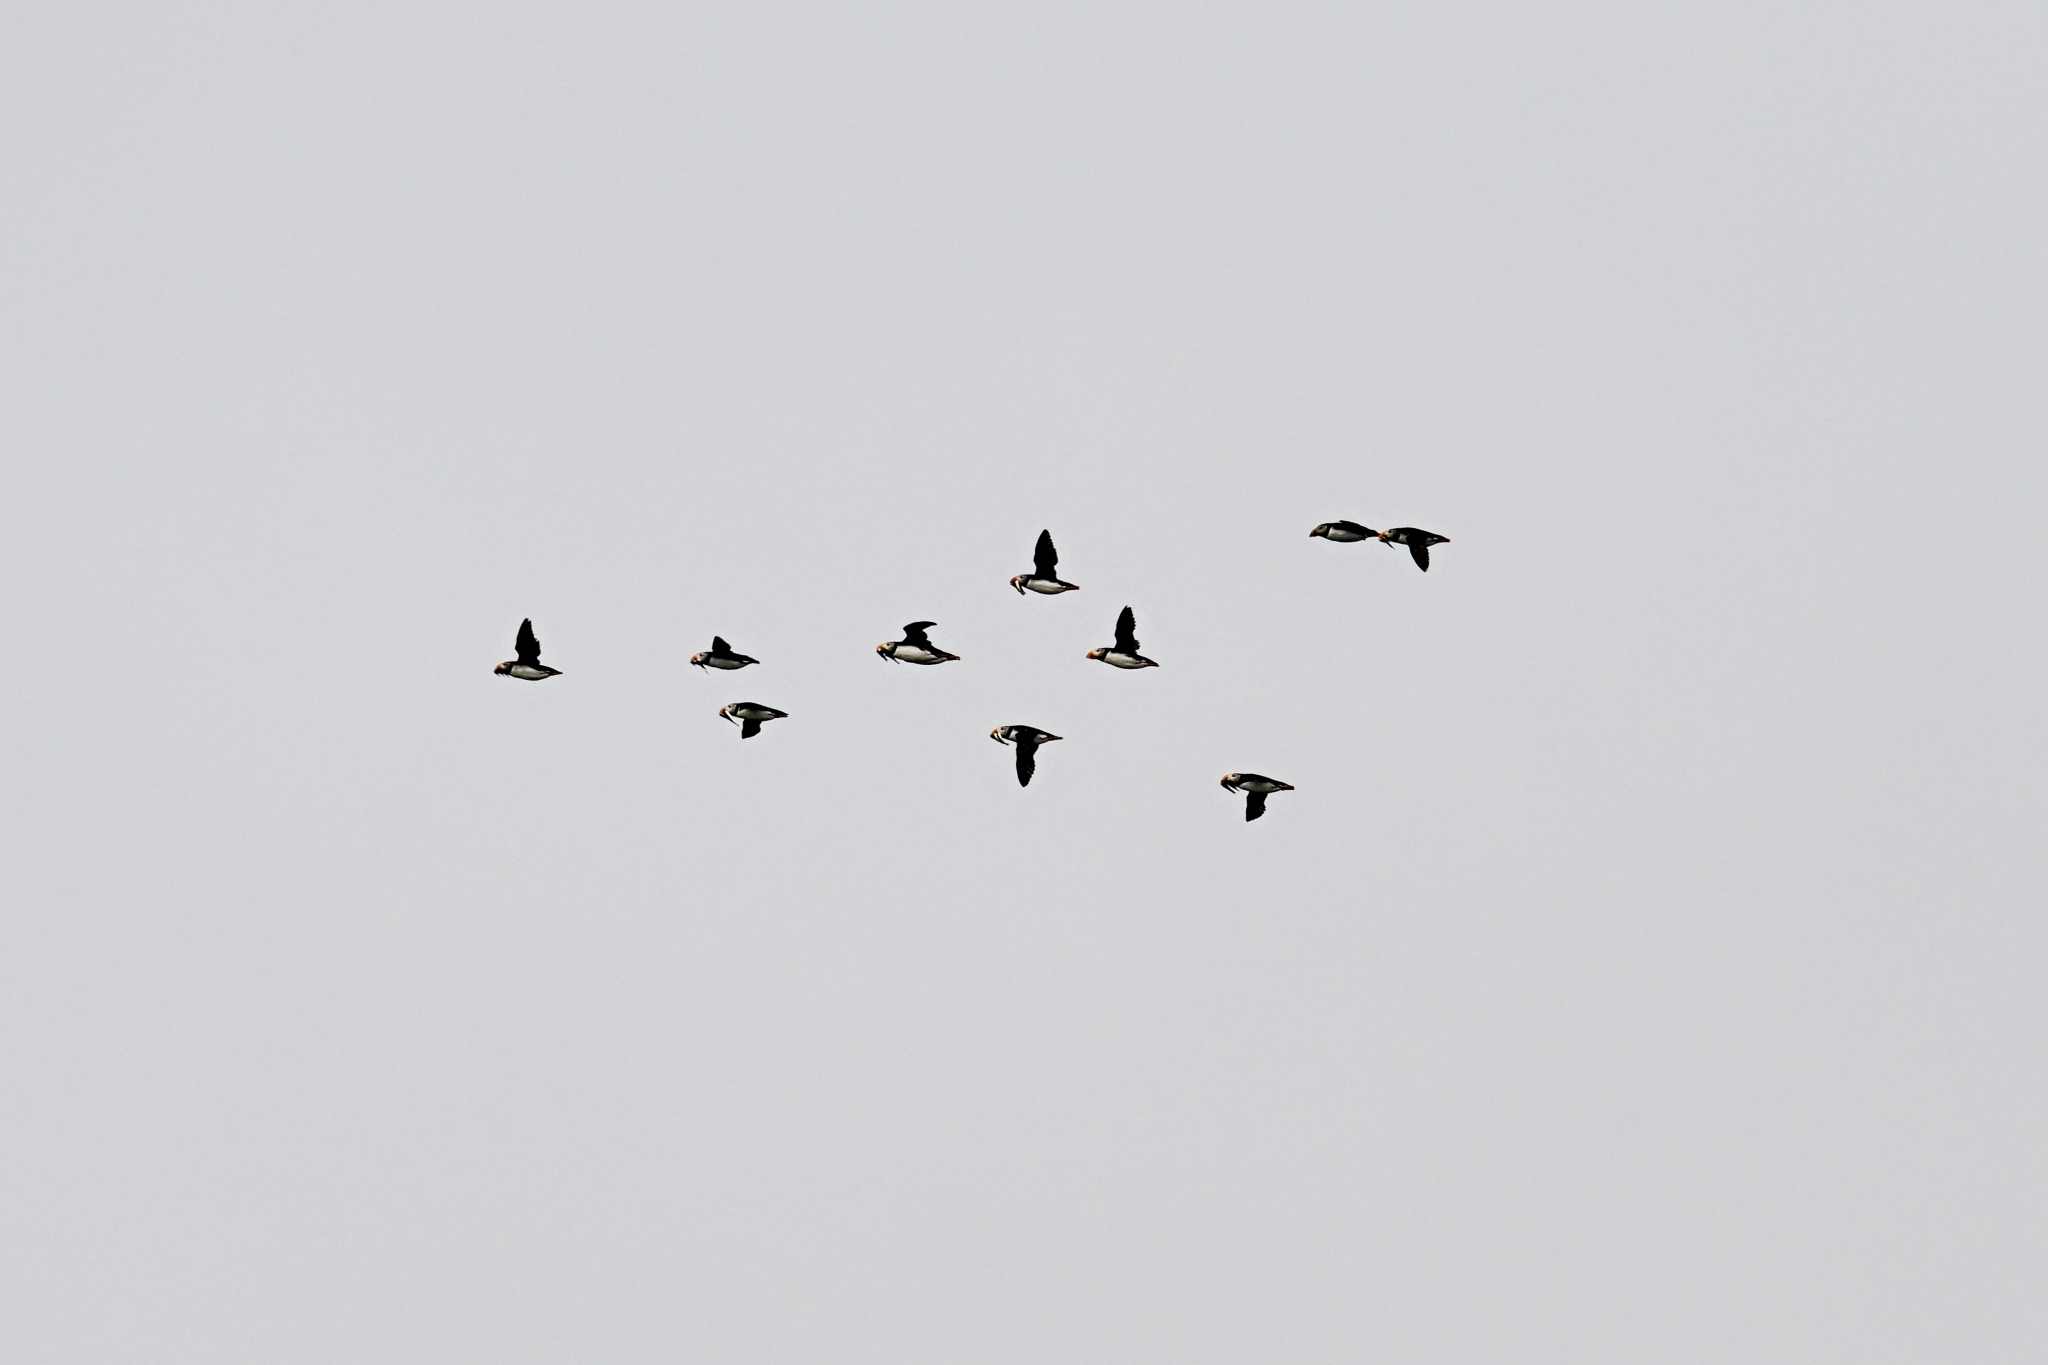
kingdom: Animalia
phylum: Chordata
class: Aves
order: Charadriiformes
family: Alcidae
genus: Fratercula
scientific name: Fratercula arctica
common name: Atlantic puffin
